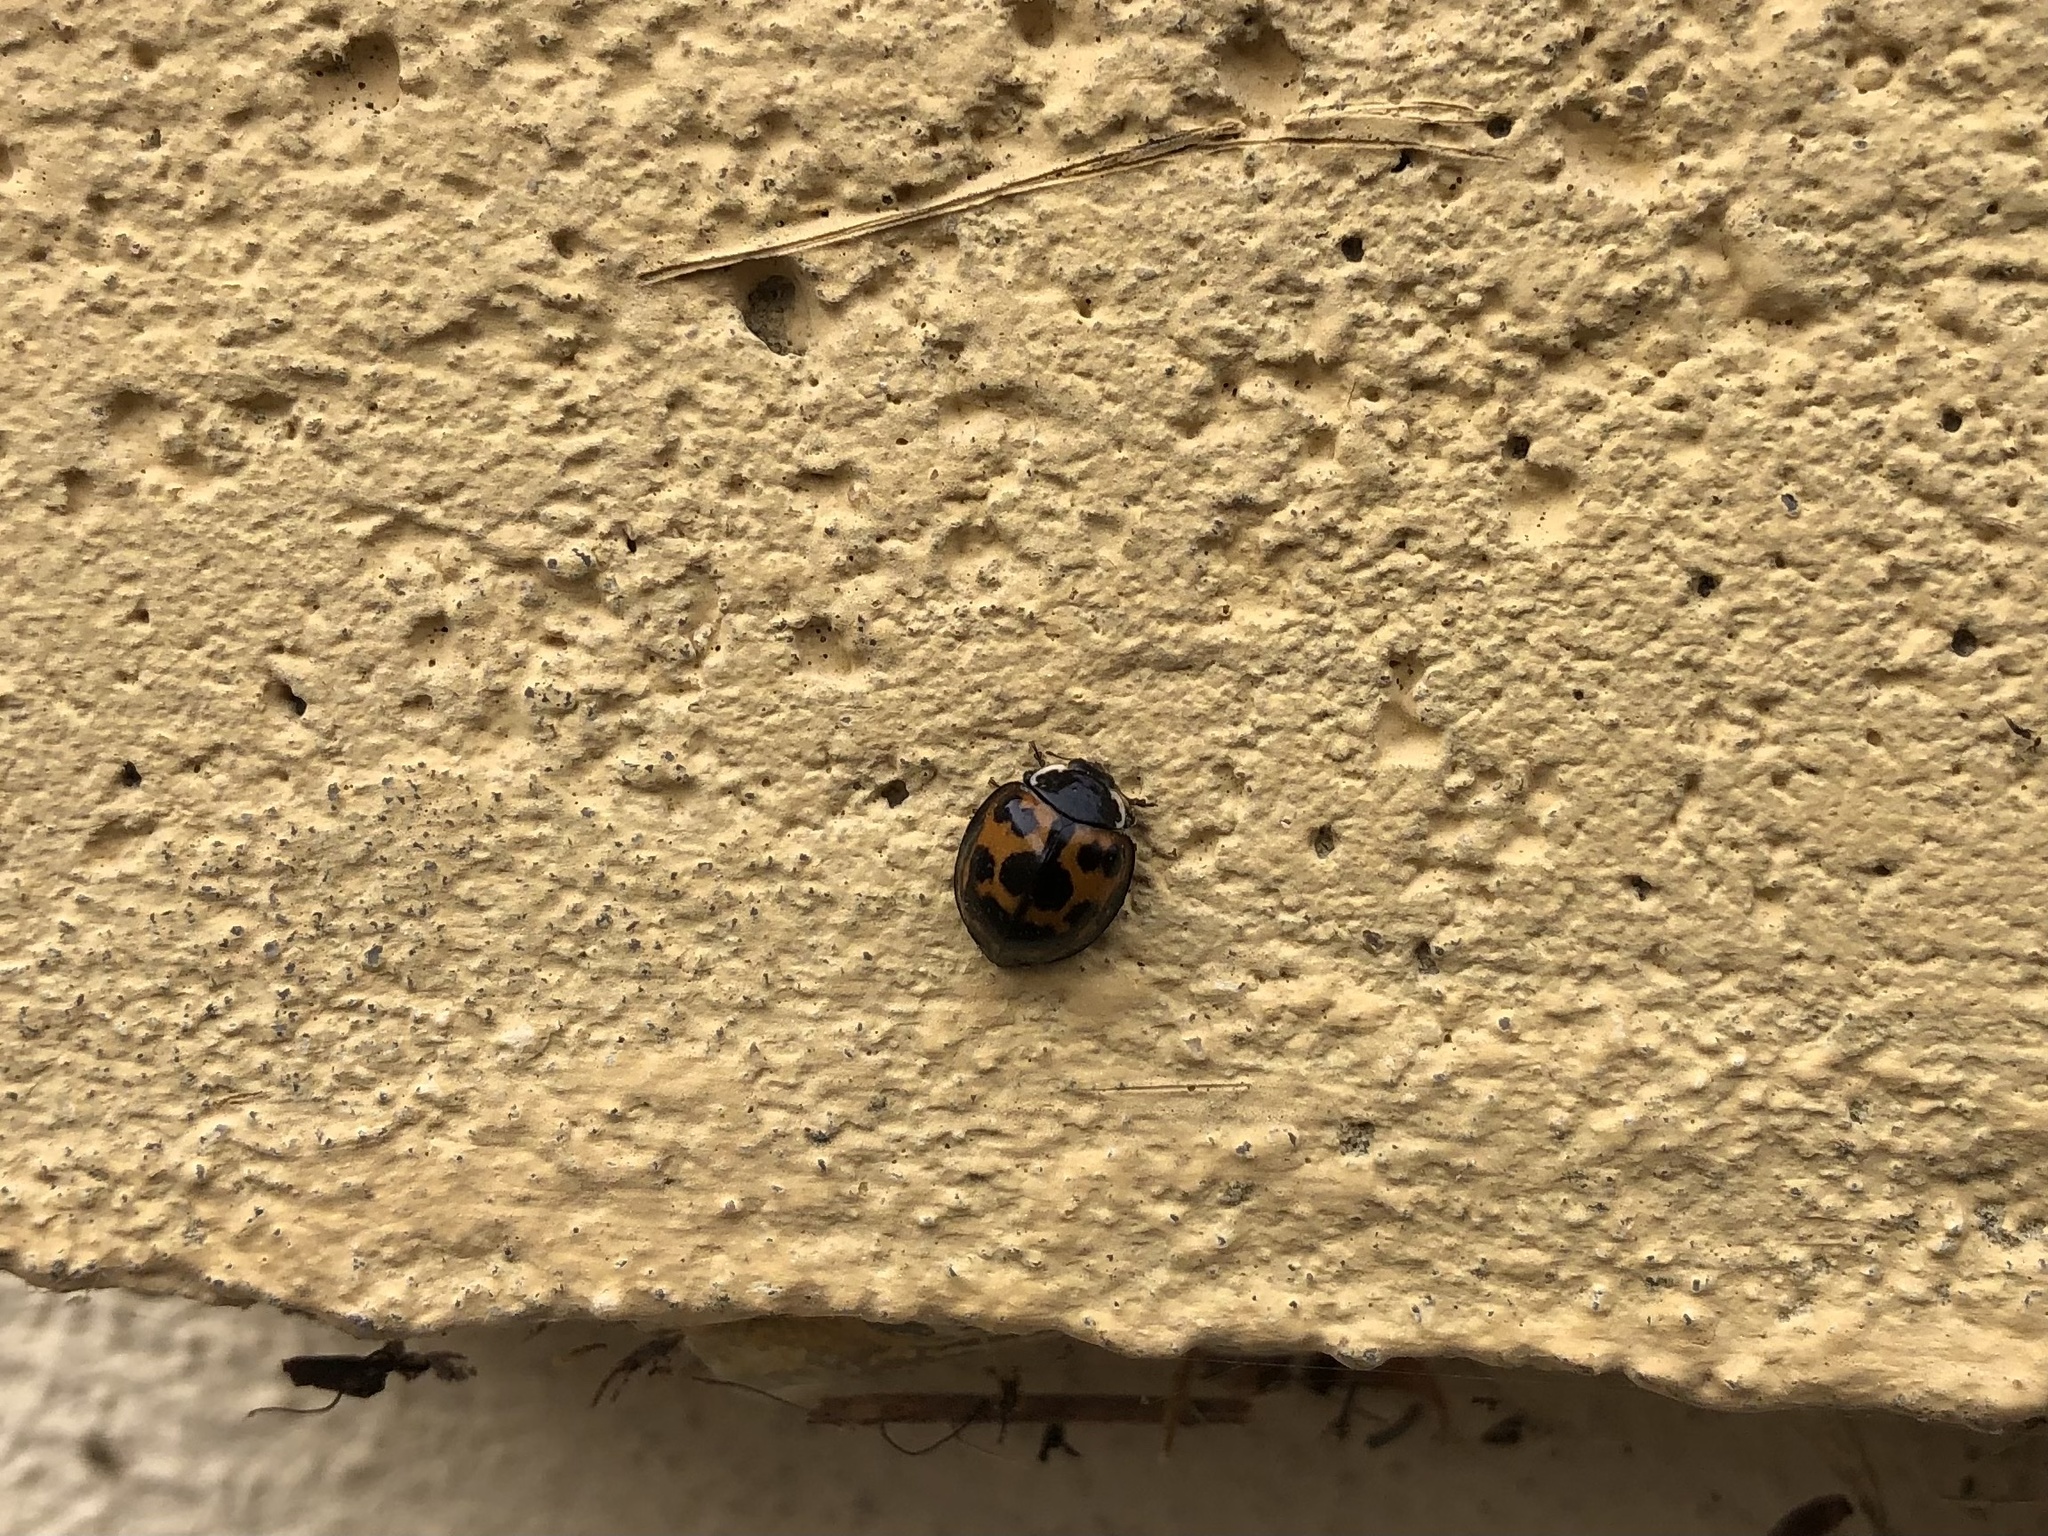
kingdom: Animalia
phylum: Arthropoda
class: Insecta
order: Coleoptera
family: Coccinellidae
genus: Harmonia
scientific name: Harmonia axyridis
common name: Harlequin ladybird
